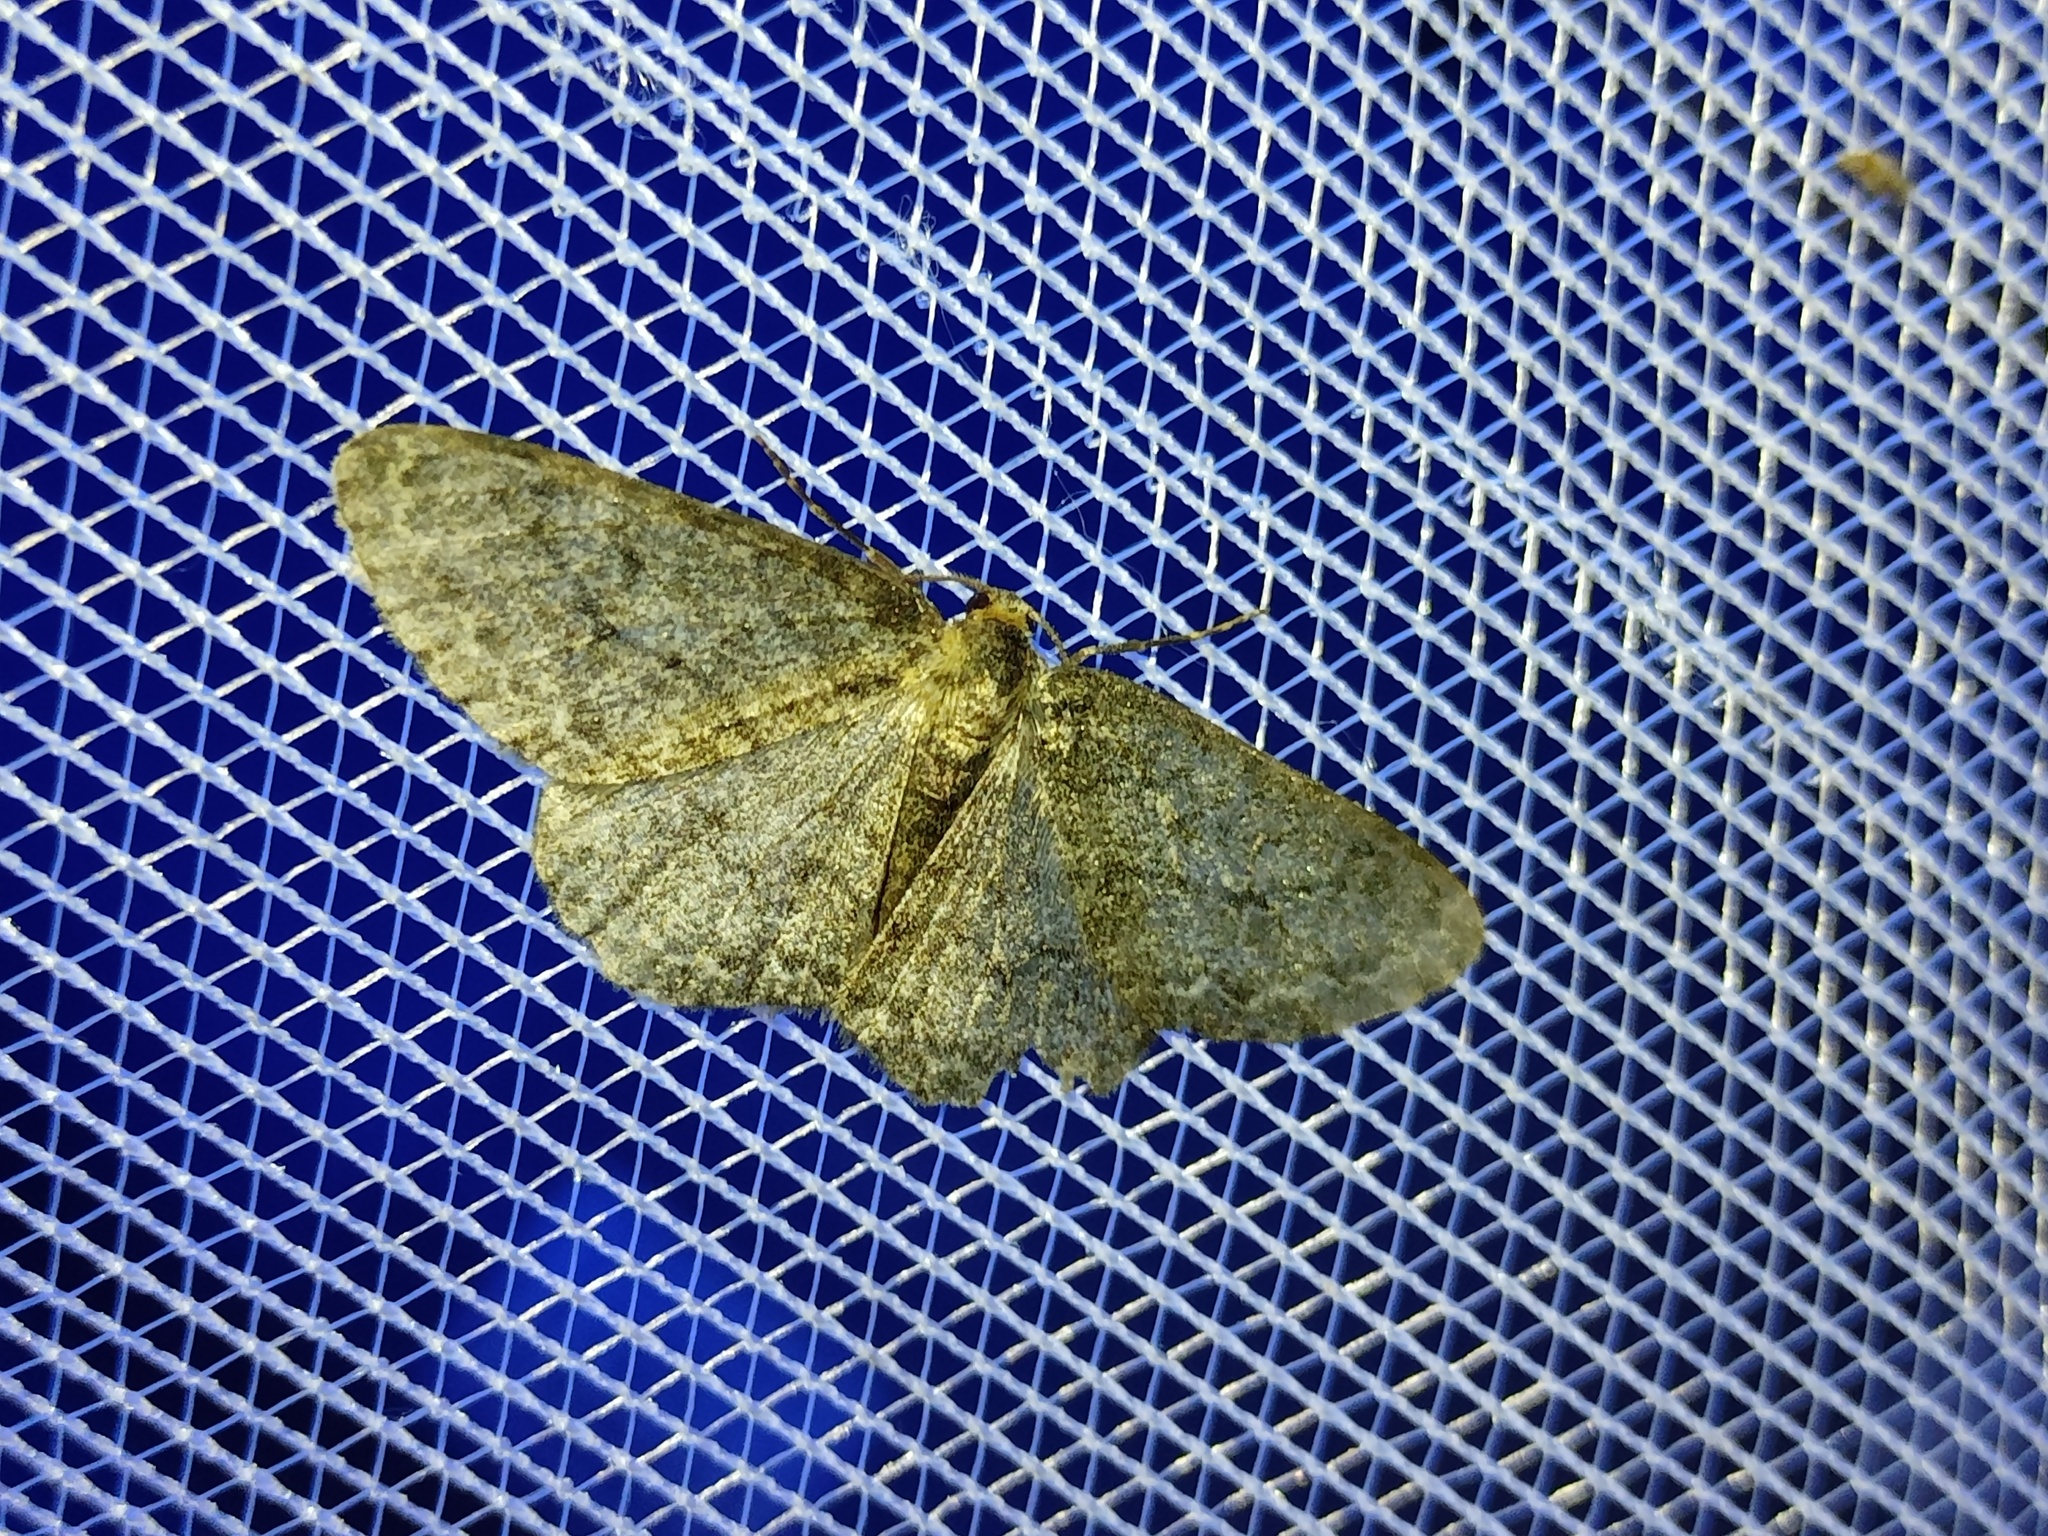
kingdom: Animalia
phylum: Arthropoda
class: Insecta
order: Lepidoptera
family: Geometridae
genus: Ectropis
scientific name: Ectropis crepuscularia
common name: Engrailed
